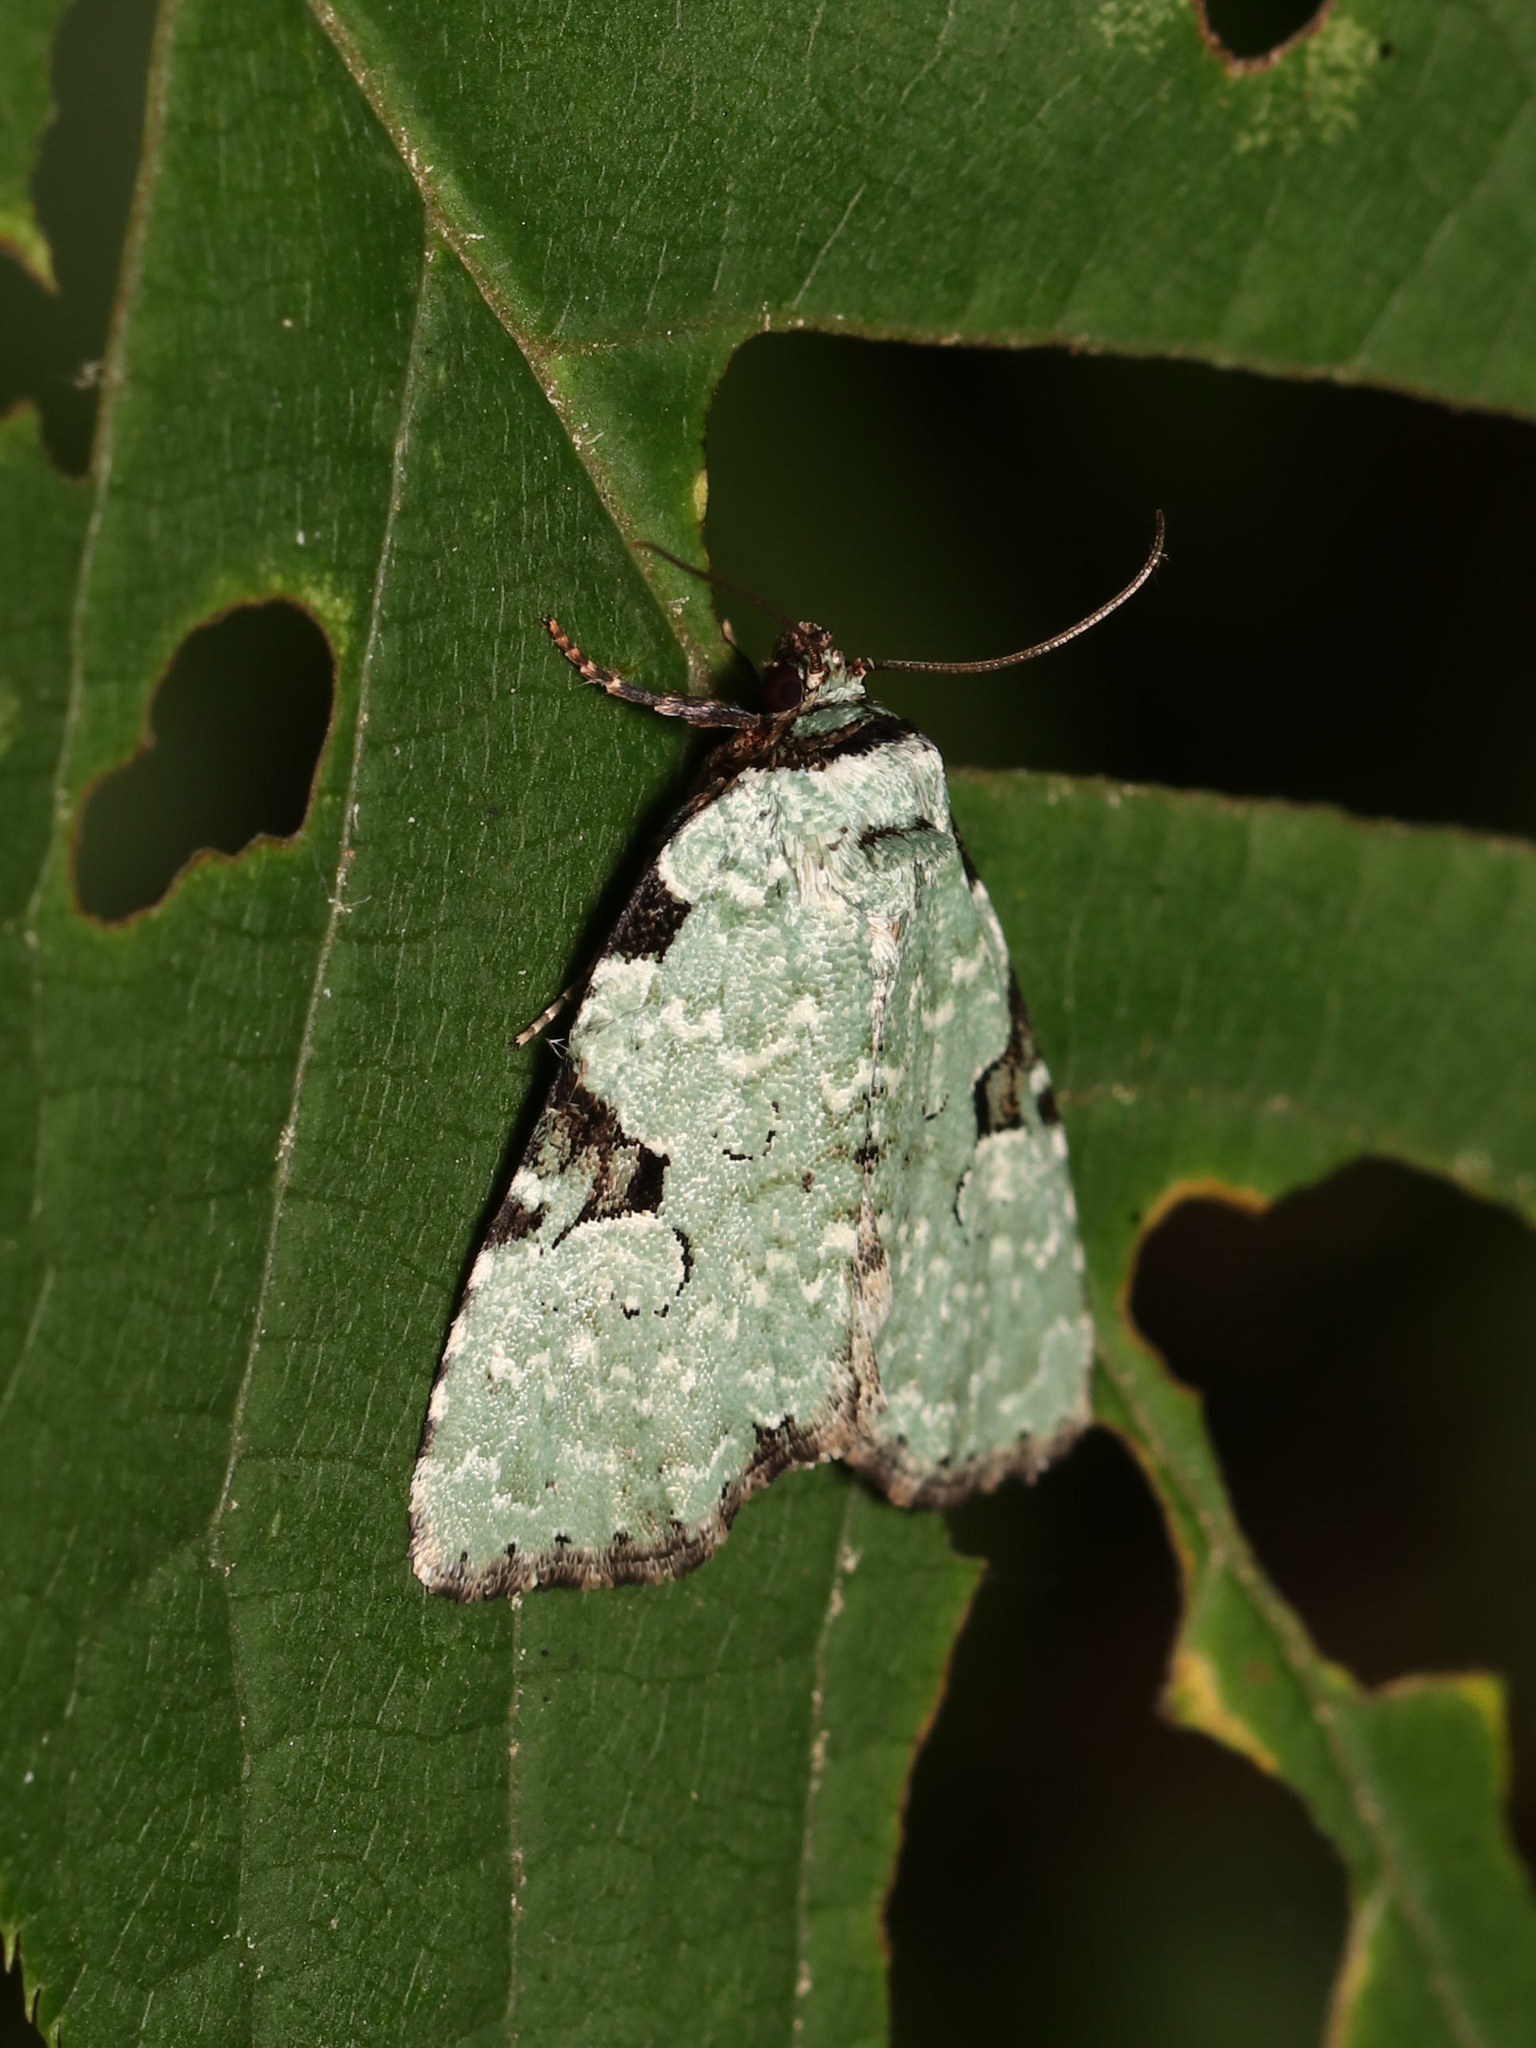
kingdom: Animalia
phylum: Arthropoda
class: Insecta
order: Lepidoptera
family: Noctuidae
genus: Leuconycta
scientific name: Leuconycta diphteroides
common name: Green leuconycta moth
